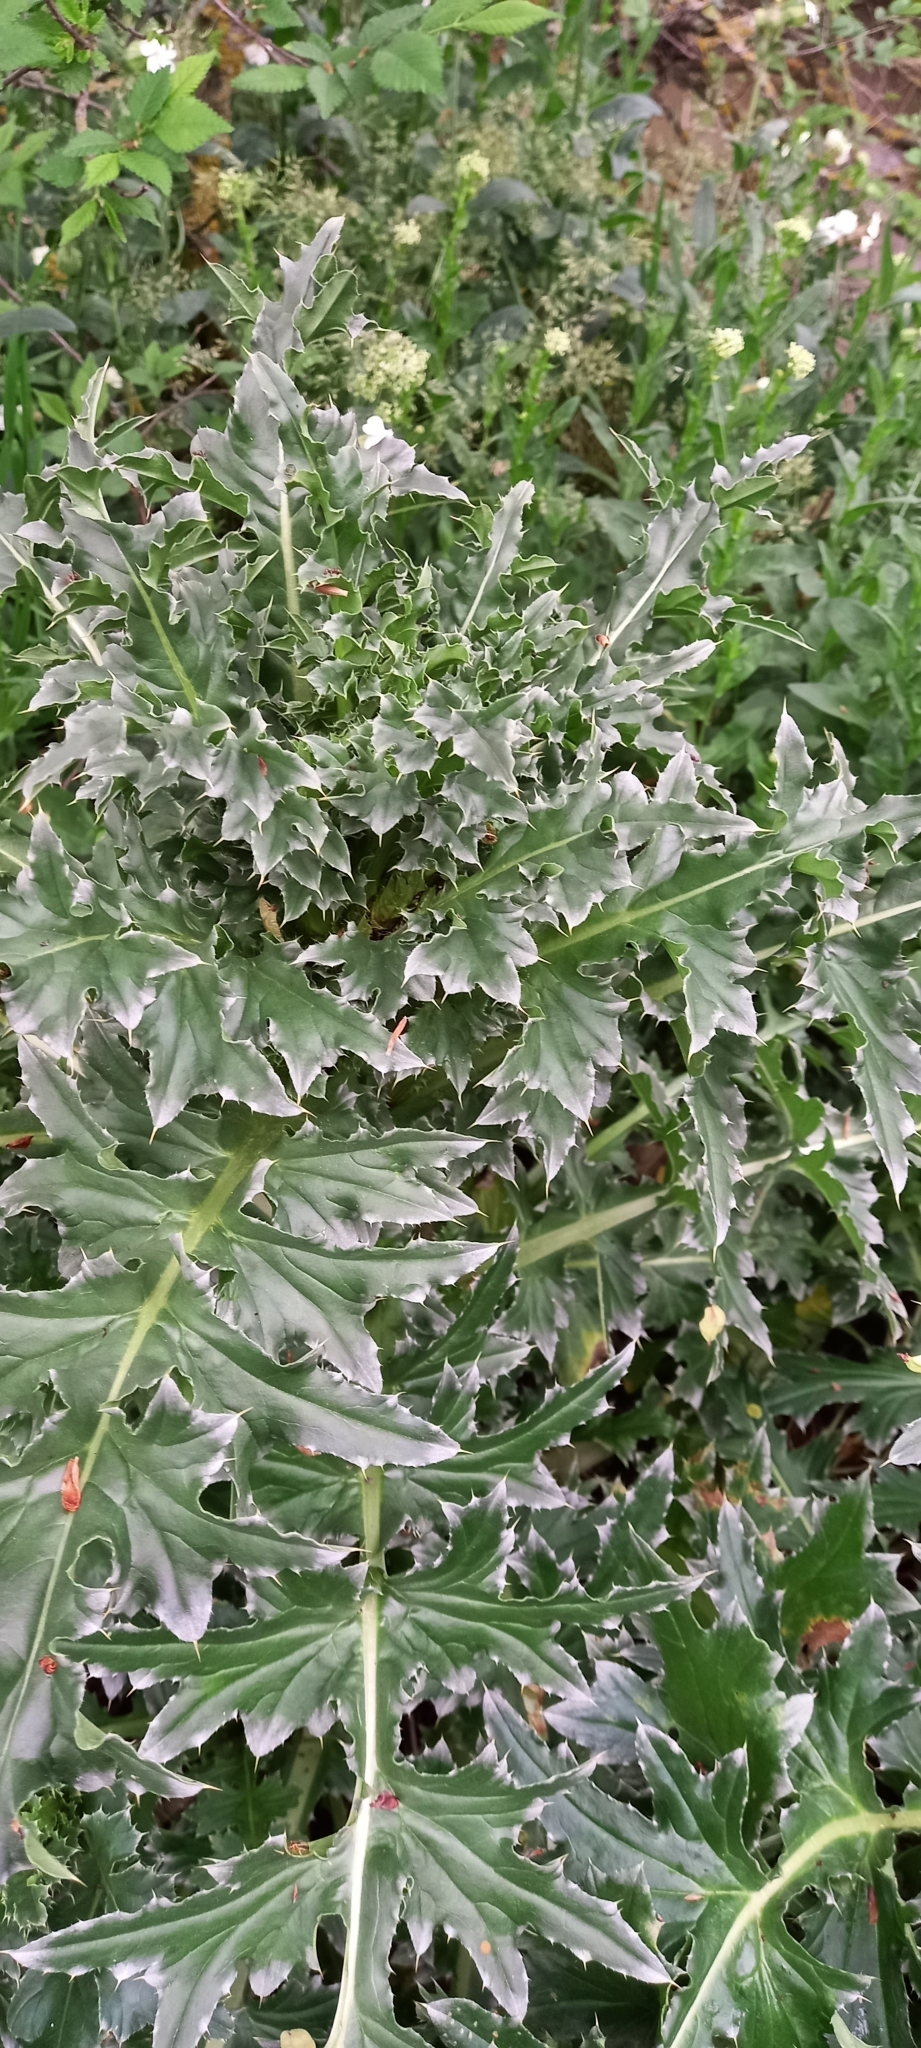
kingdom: Plantae
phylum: Tracheophyta
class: Magnoliopsida
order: Asterales
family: Asteraceae
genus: Carduus
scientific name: Carduus nutans
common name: Musk thistle
